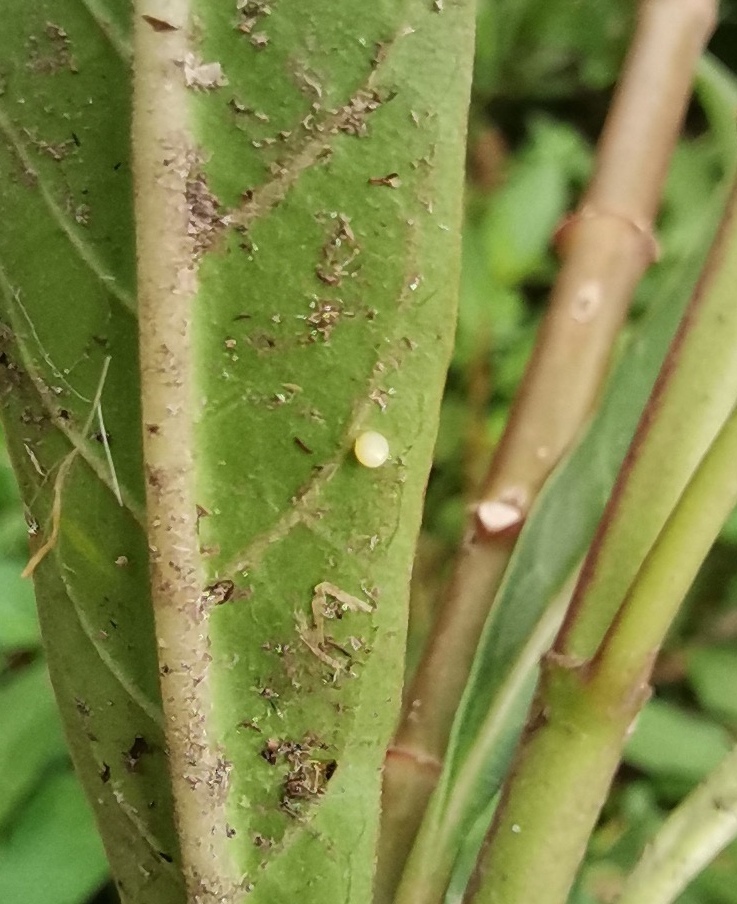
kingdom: Animalia
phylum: Arthropoda
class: Insecta
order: Lepidoptera
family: Nymphalidae
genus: Danaus
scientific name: Danaus plexippus
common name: Monarch
